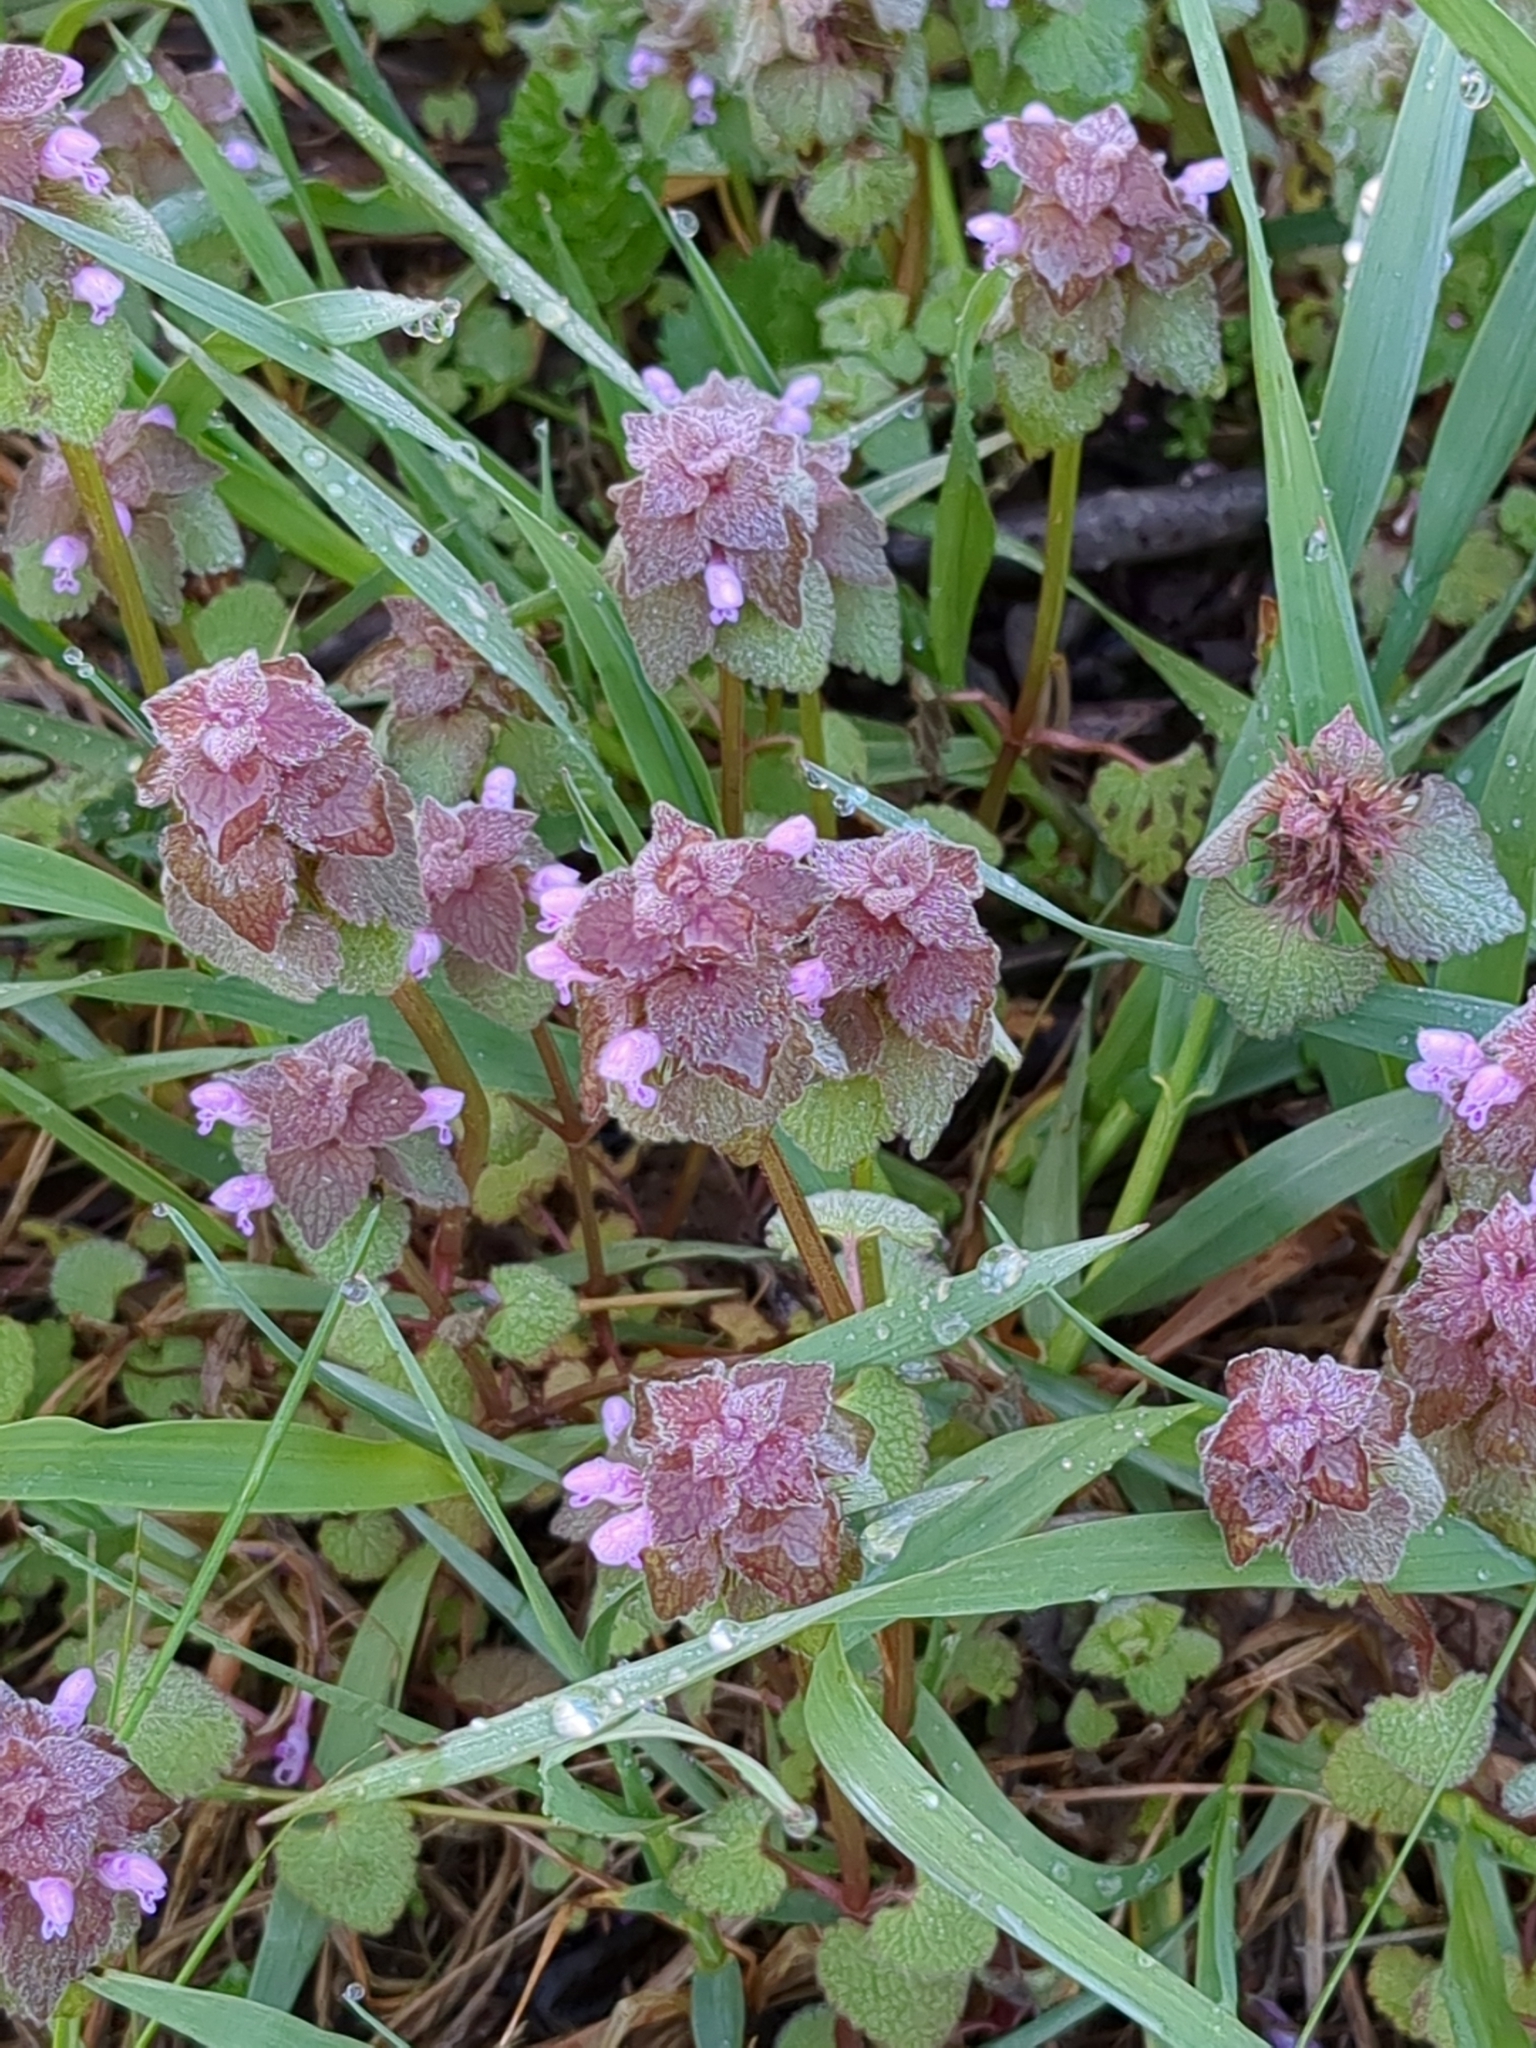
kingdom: Plantae
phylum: Tracheophyta
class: Magnoliopsida
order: Lamiales
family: Lamiaceae
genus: Lamium
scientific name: Lamium purpureum
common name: Red dead-nettle
